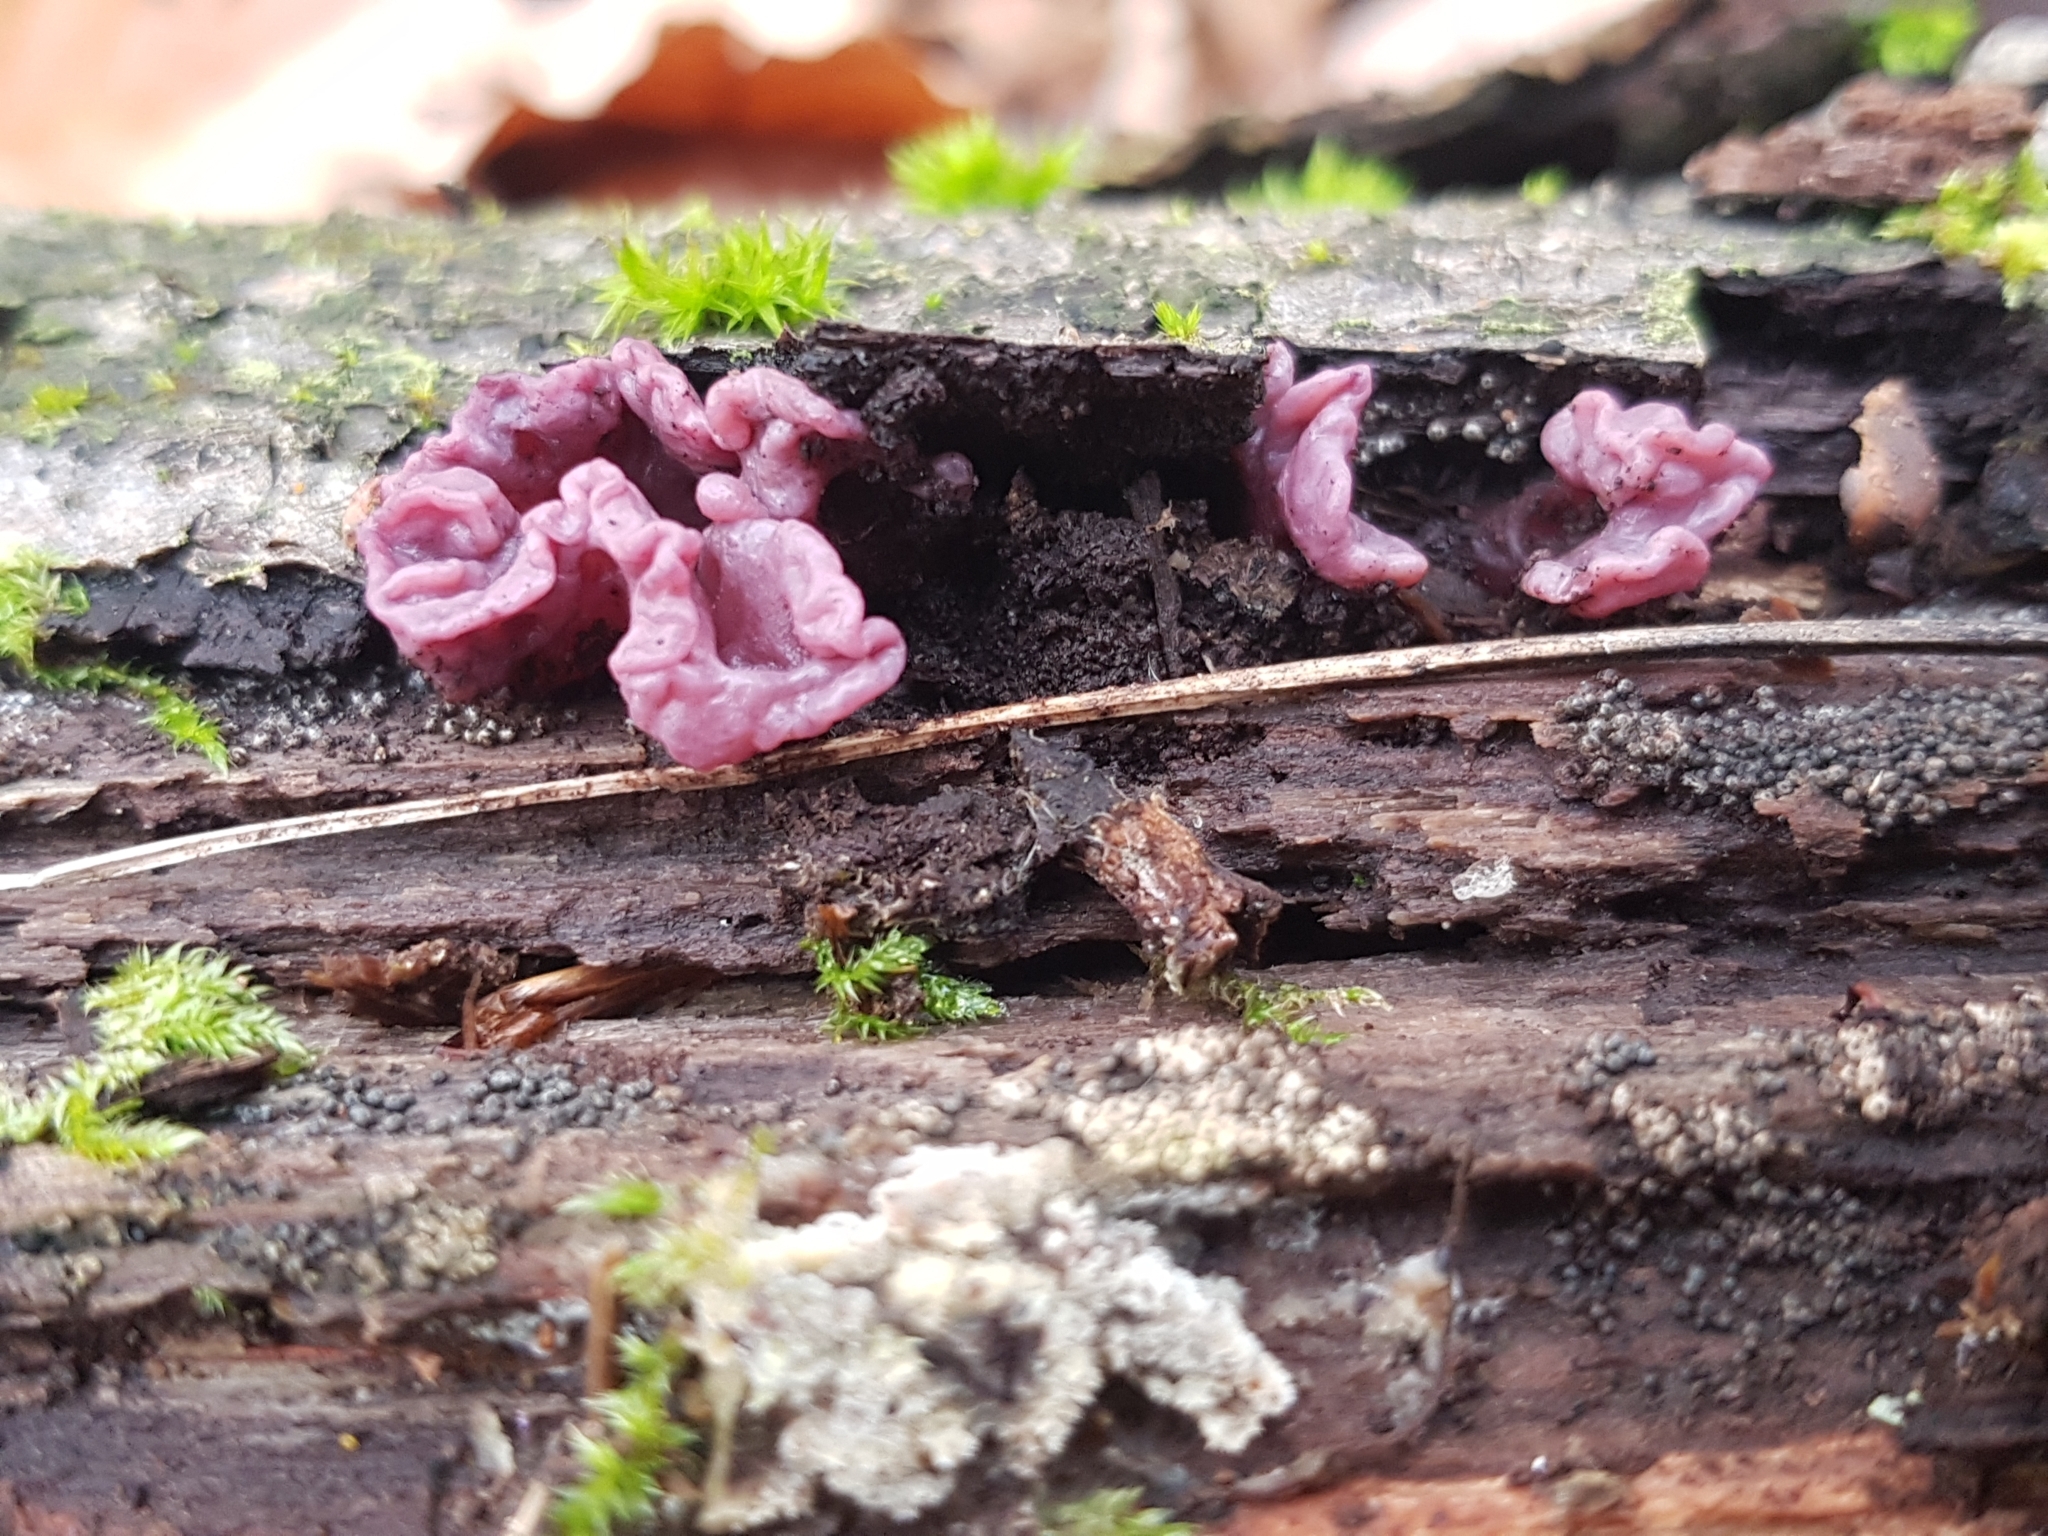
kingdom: Fungi
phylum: Ascomycota
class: Leotiomycetes
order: Helotiales
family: Gelatinodiscaceae
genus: Ascocoryne
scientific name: Ascocoryne sarcoides
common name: Purple jellydisc
